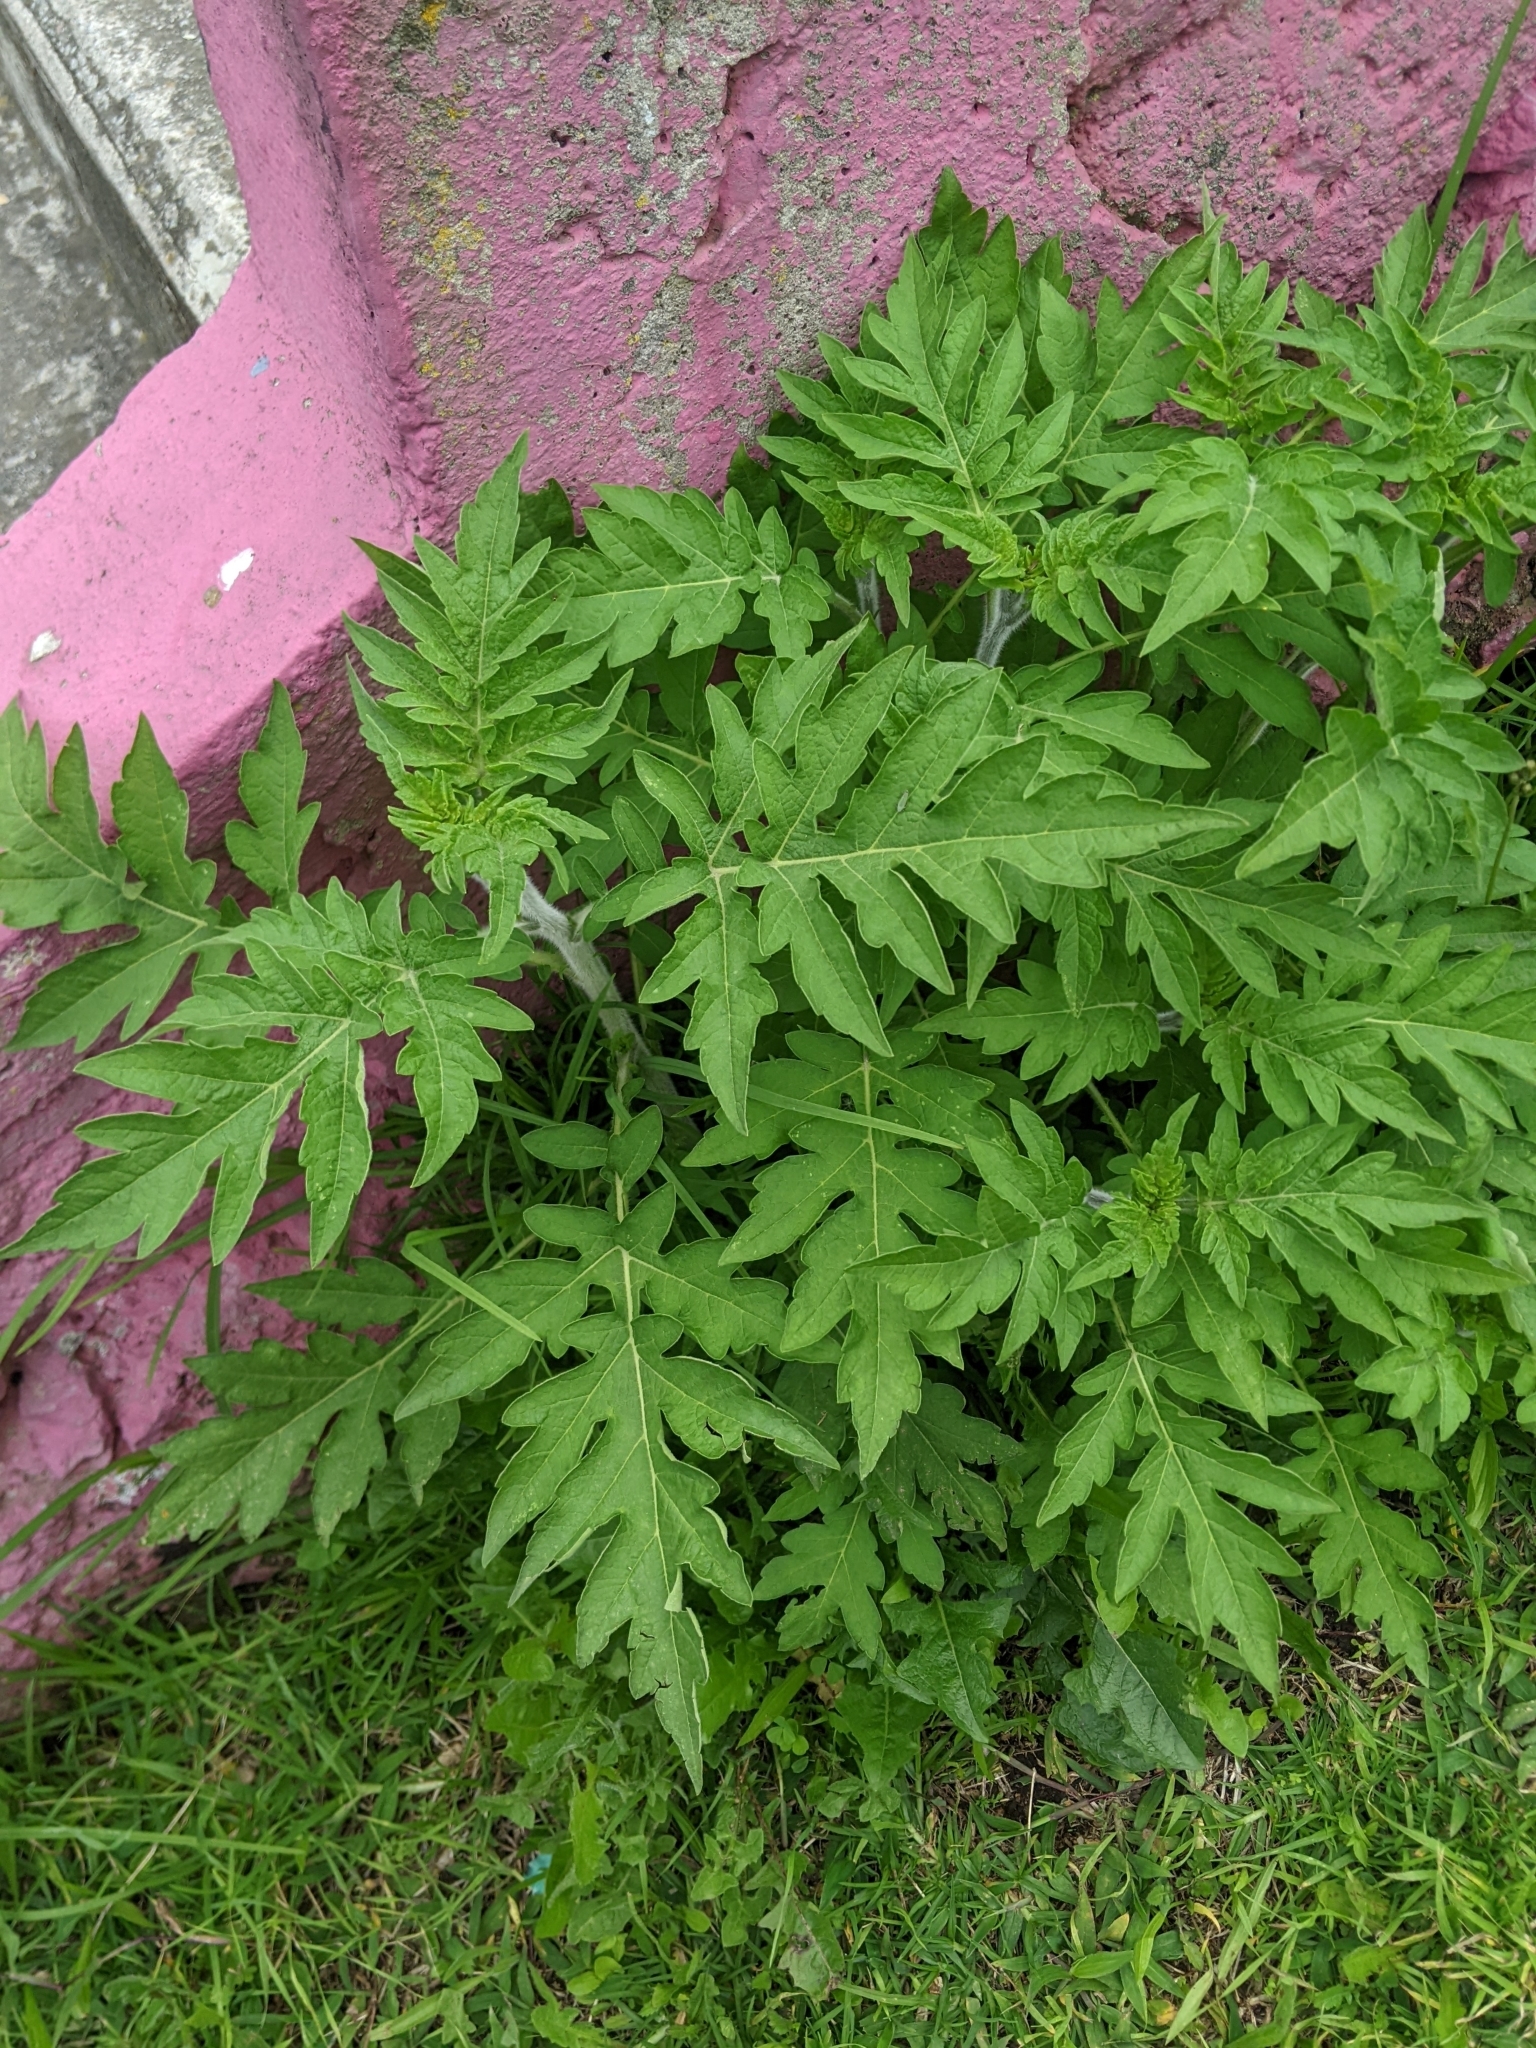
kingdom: Plantae
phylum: Tracheophyta
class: Magnoliopsida
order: Asterales
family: Asteraceae
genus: Ambrosia
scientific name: Ambrosia arborescens
